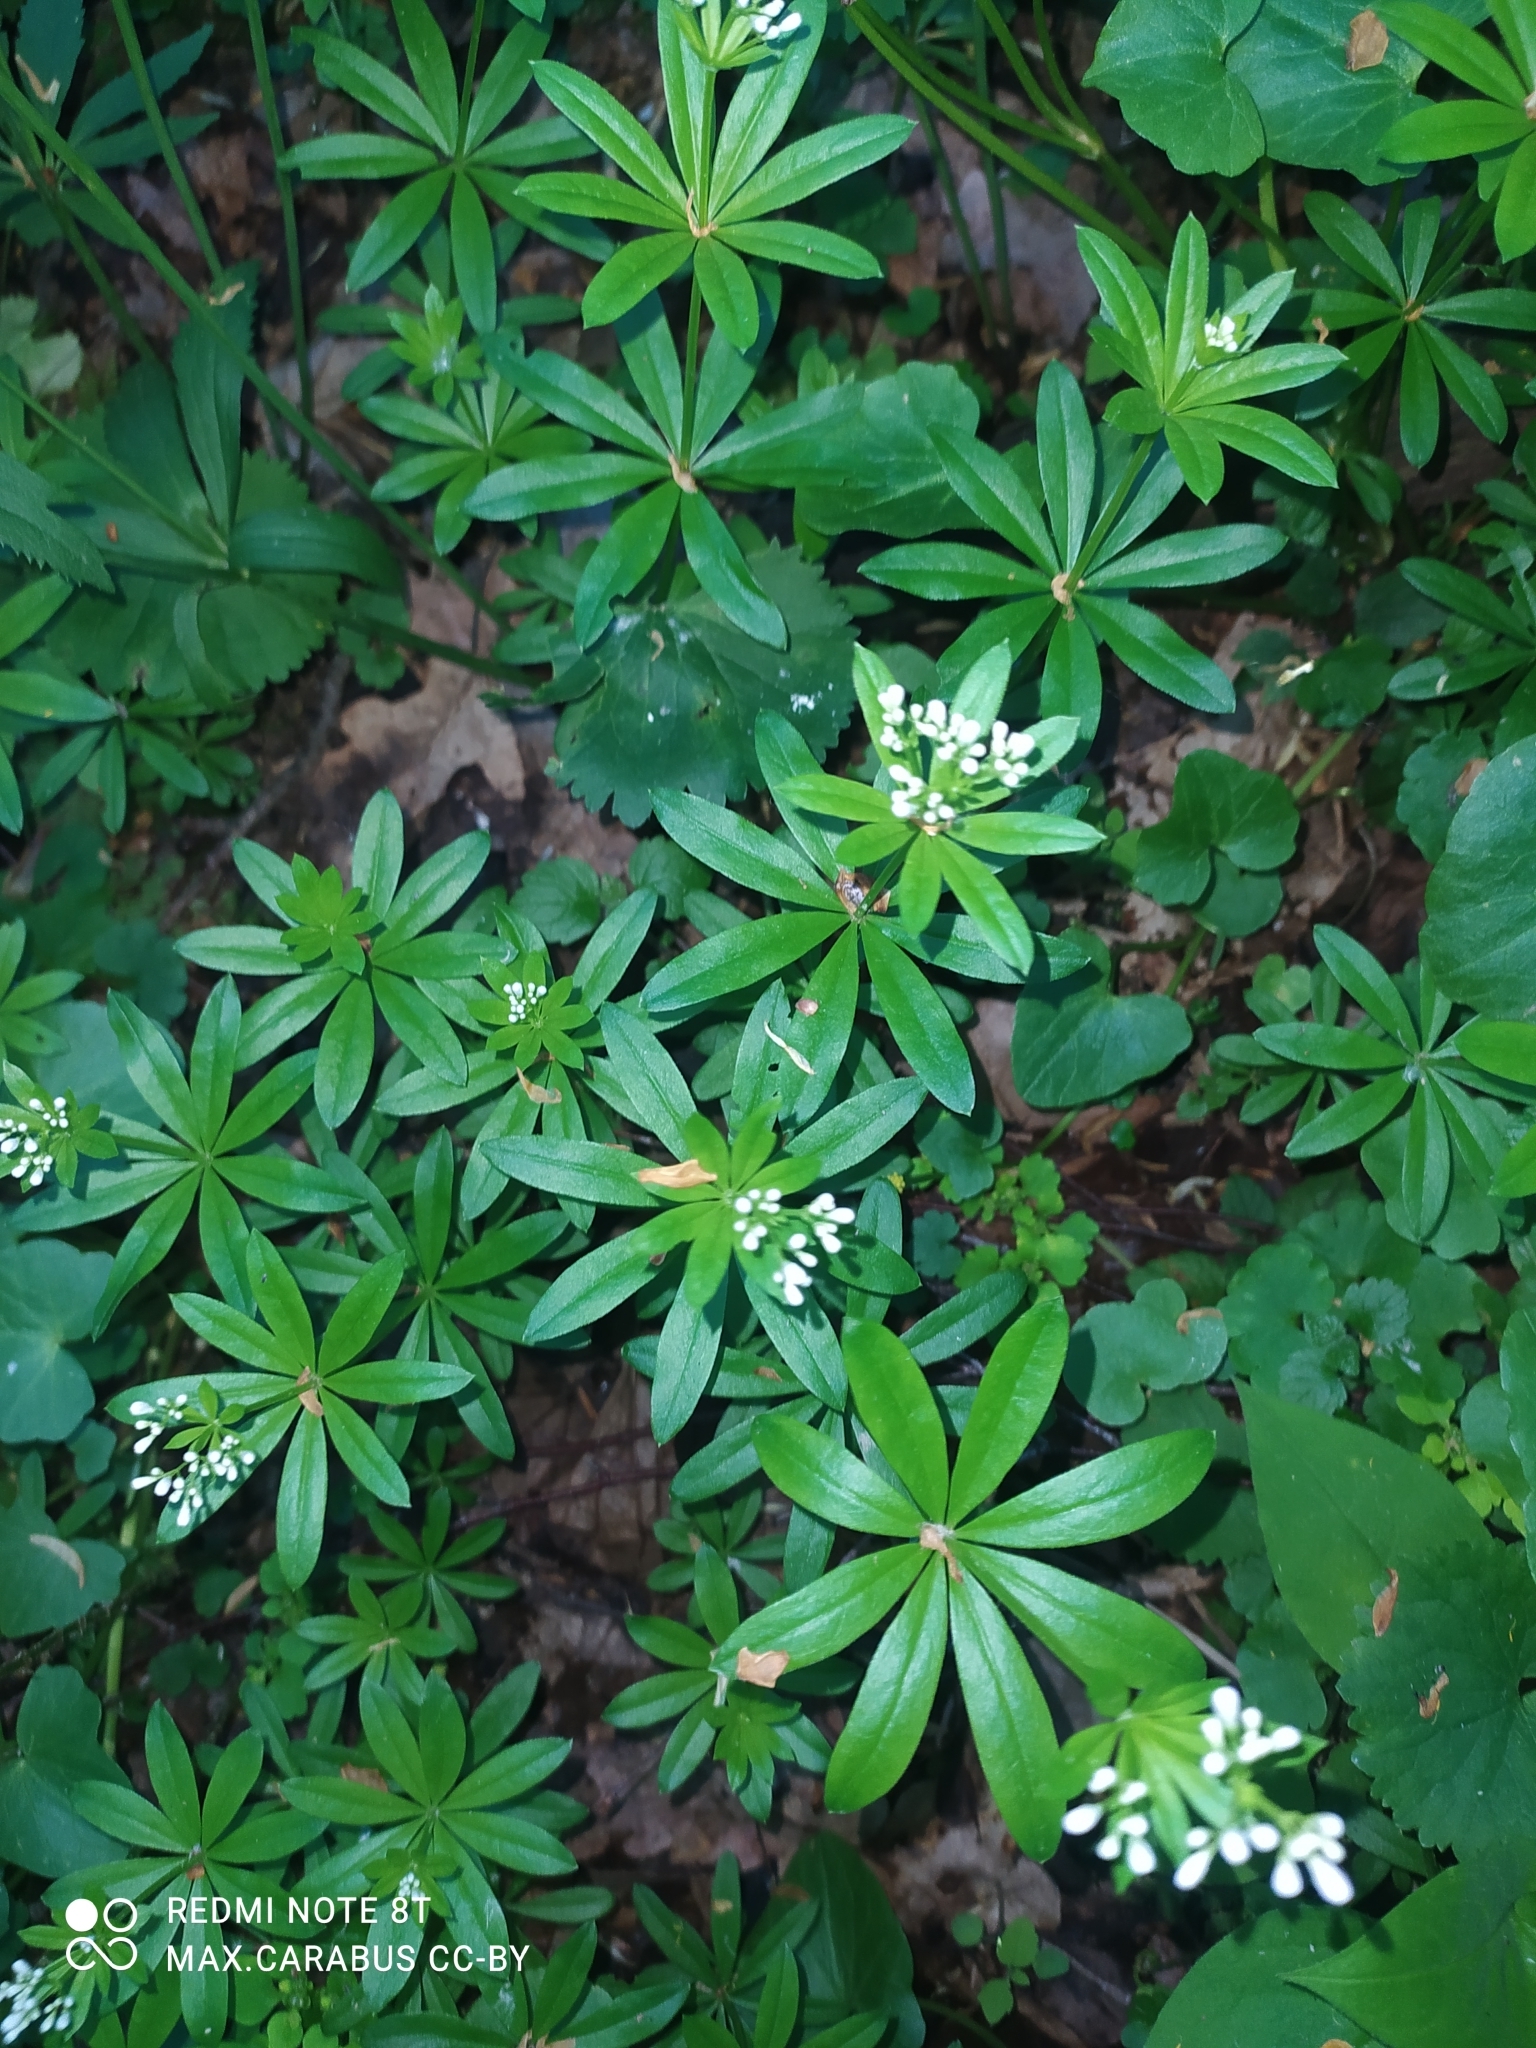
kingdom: Plantae
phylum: Tracheophyta
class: Magnoliopsida
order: Gentianales
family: Rubiaceae
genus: Galium
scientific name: Galium odoratum
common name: Sweet woodruff
